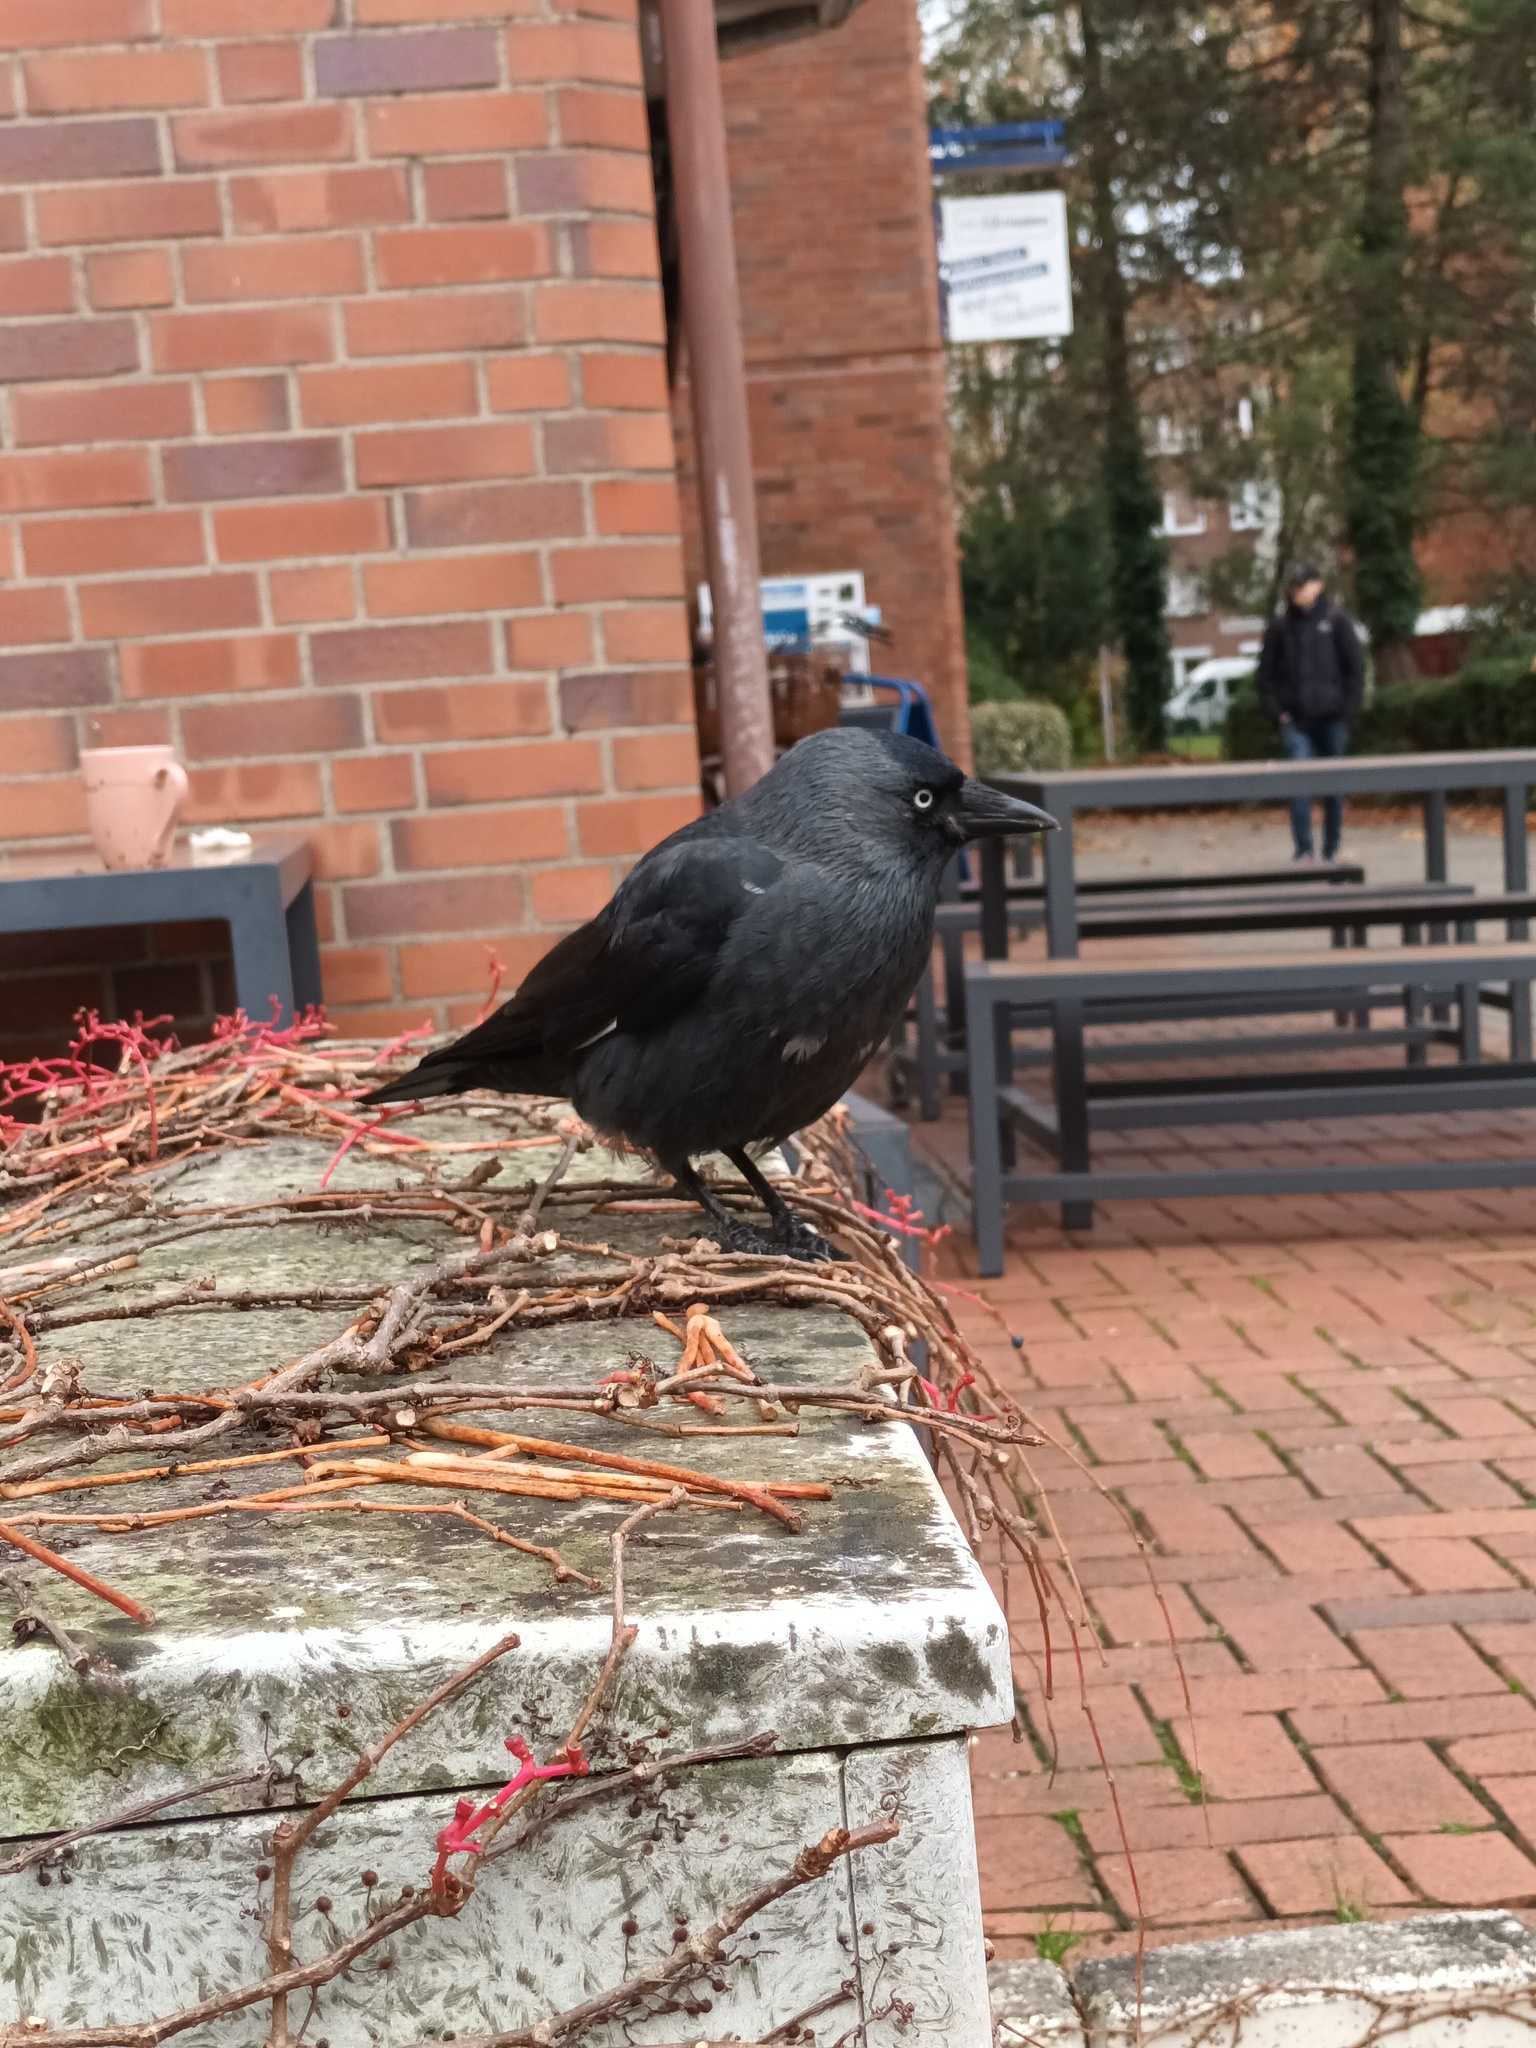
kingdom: Animalia
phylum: Chordata
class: Aves
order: Passeriformes
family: Corvidae
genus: Coloeus
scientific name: Coloeus monedula
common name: Western jackdaw
